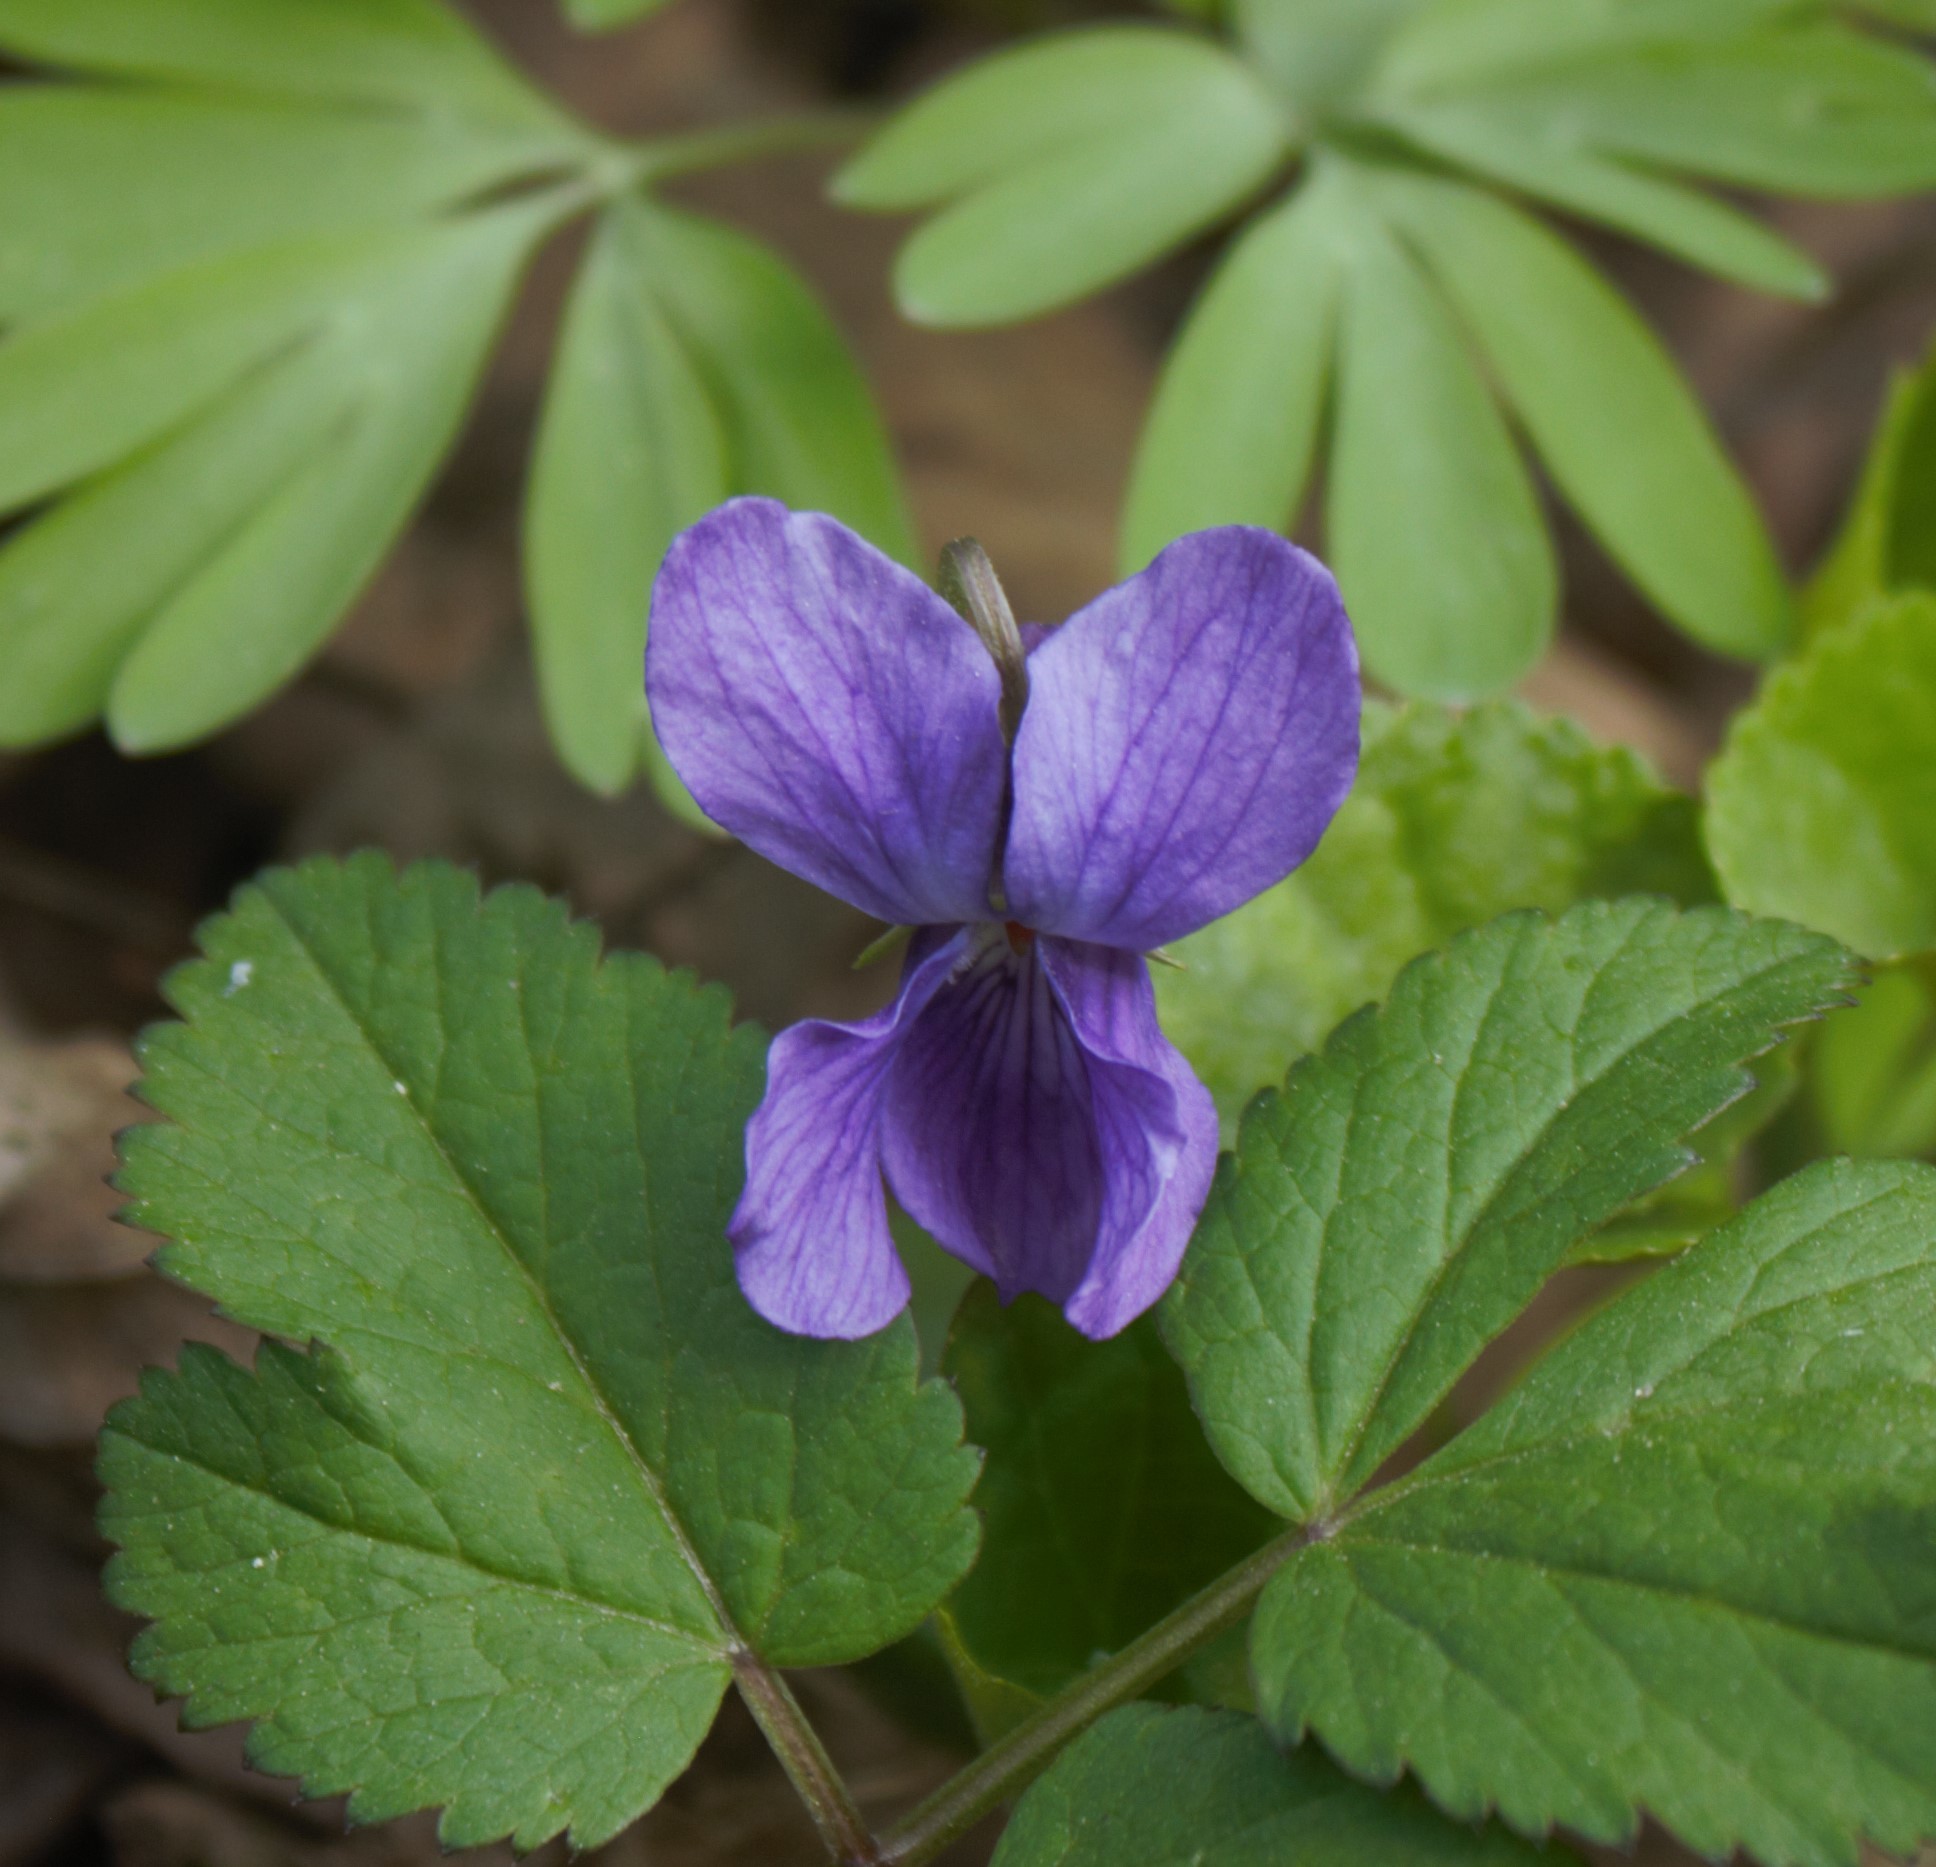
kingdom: Plantae
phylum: Tracheophyta
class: Magnoliopsida
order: Malpighiales
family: Violaceae
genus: Viola
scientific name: Viola odorata
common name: Sweet violet
